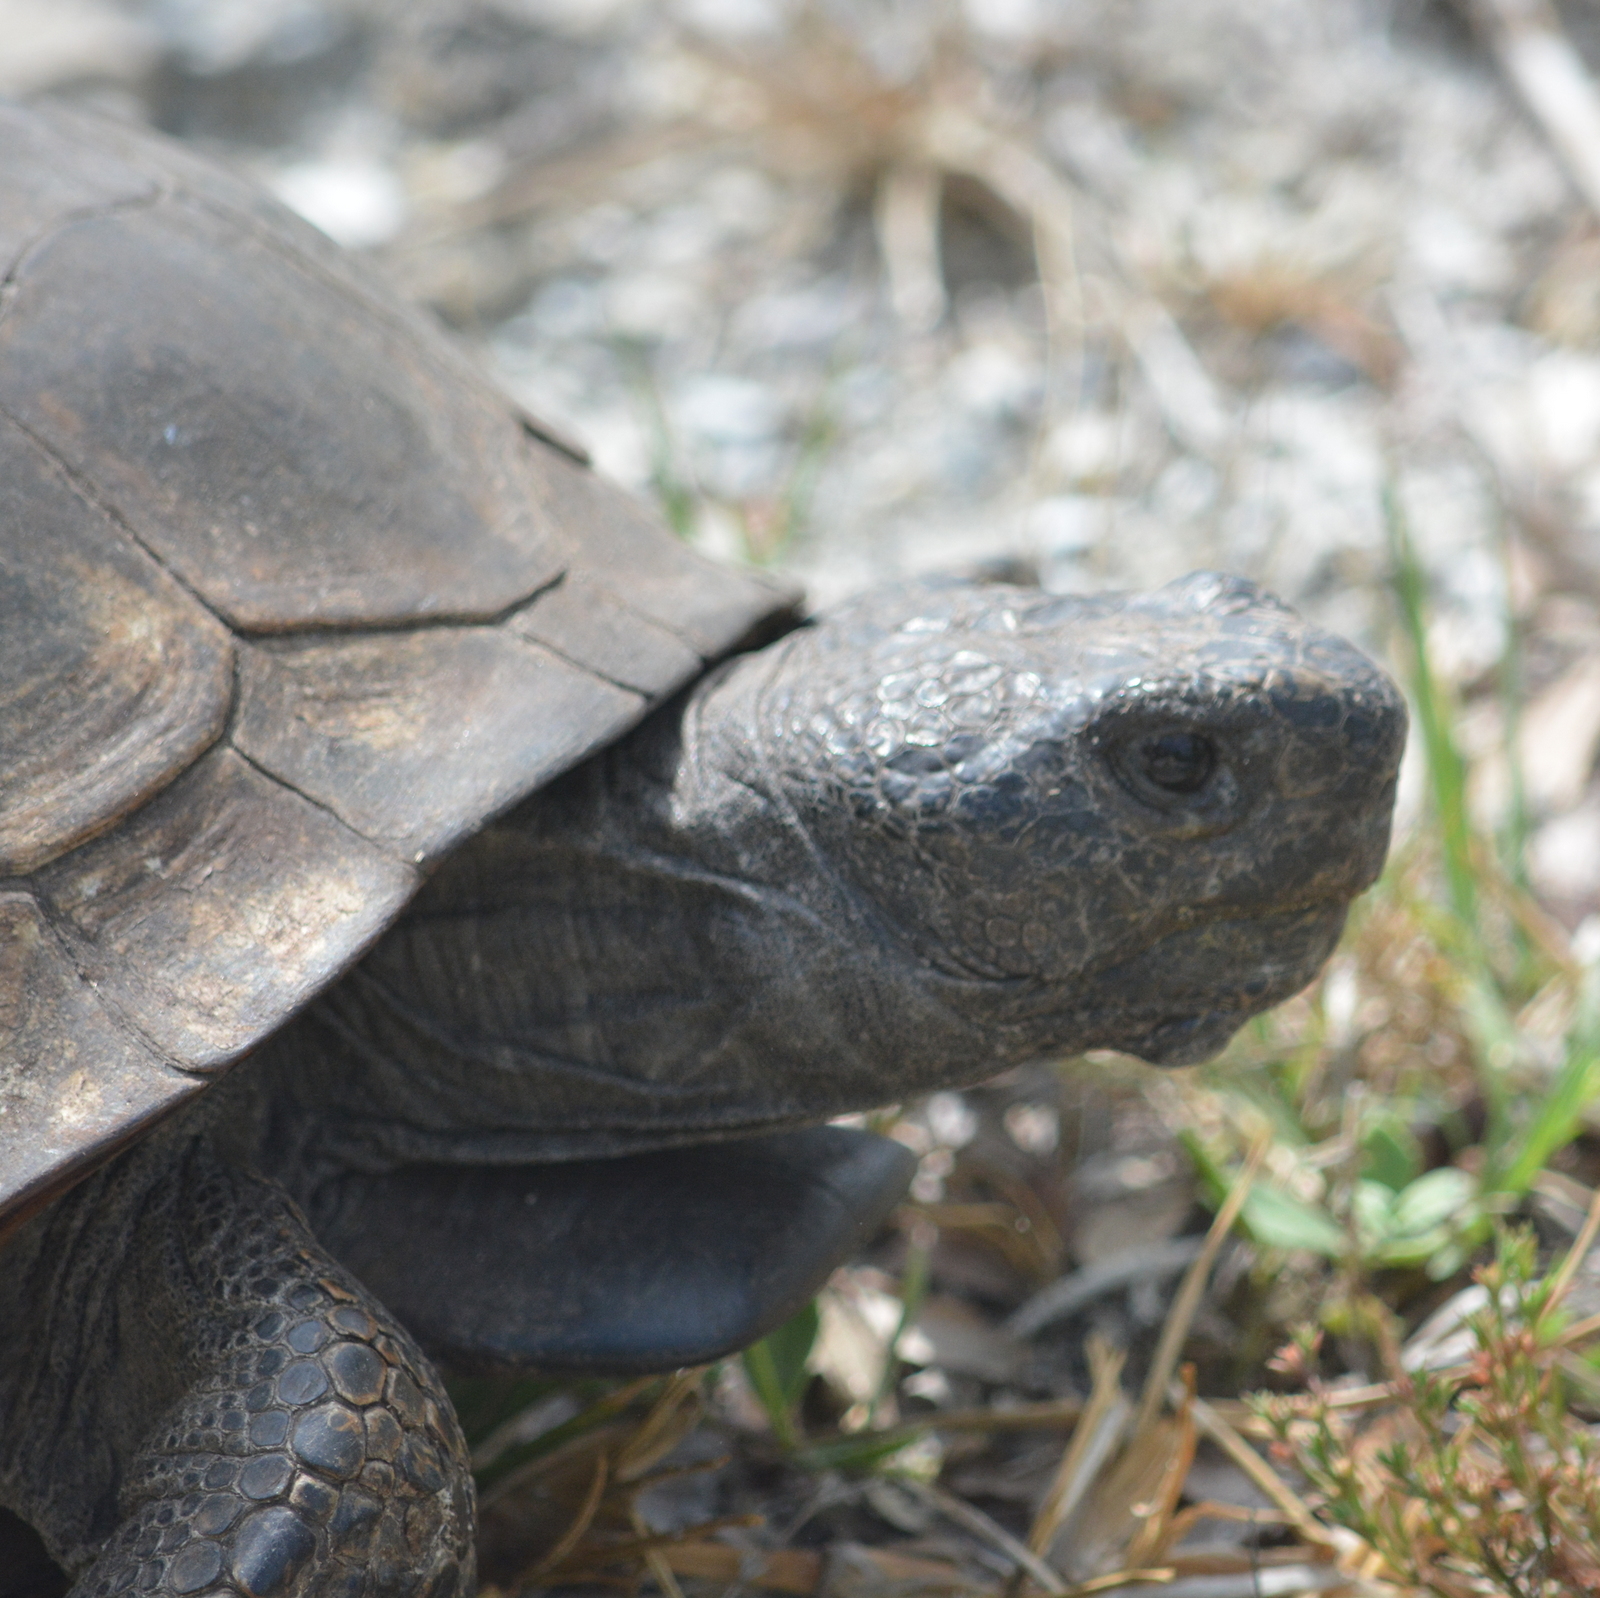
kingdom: Animalia
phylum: Chordata
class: Testudines
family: Testudinidae
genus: Gopherus
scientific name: Gopherus polyphemus
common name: Florida gopher tortoise
